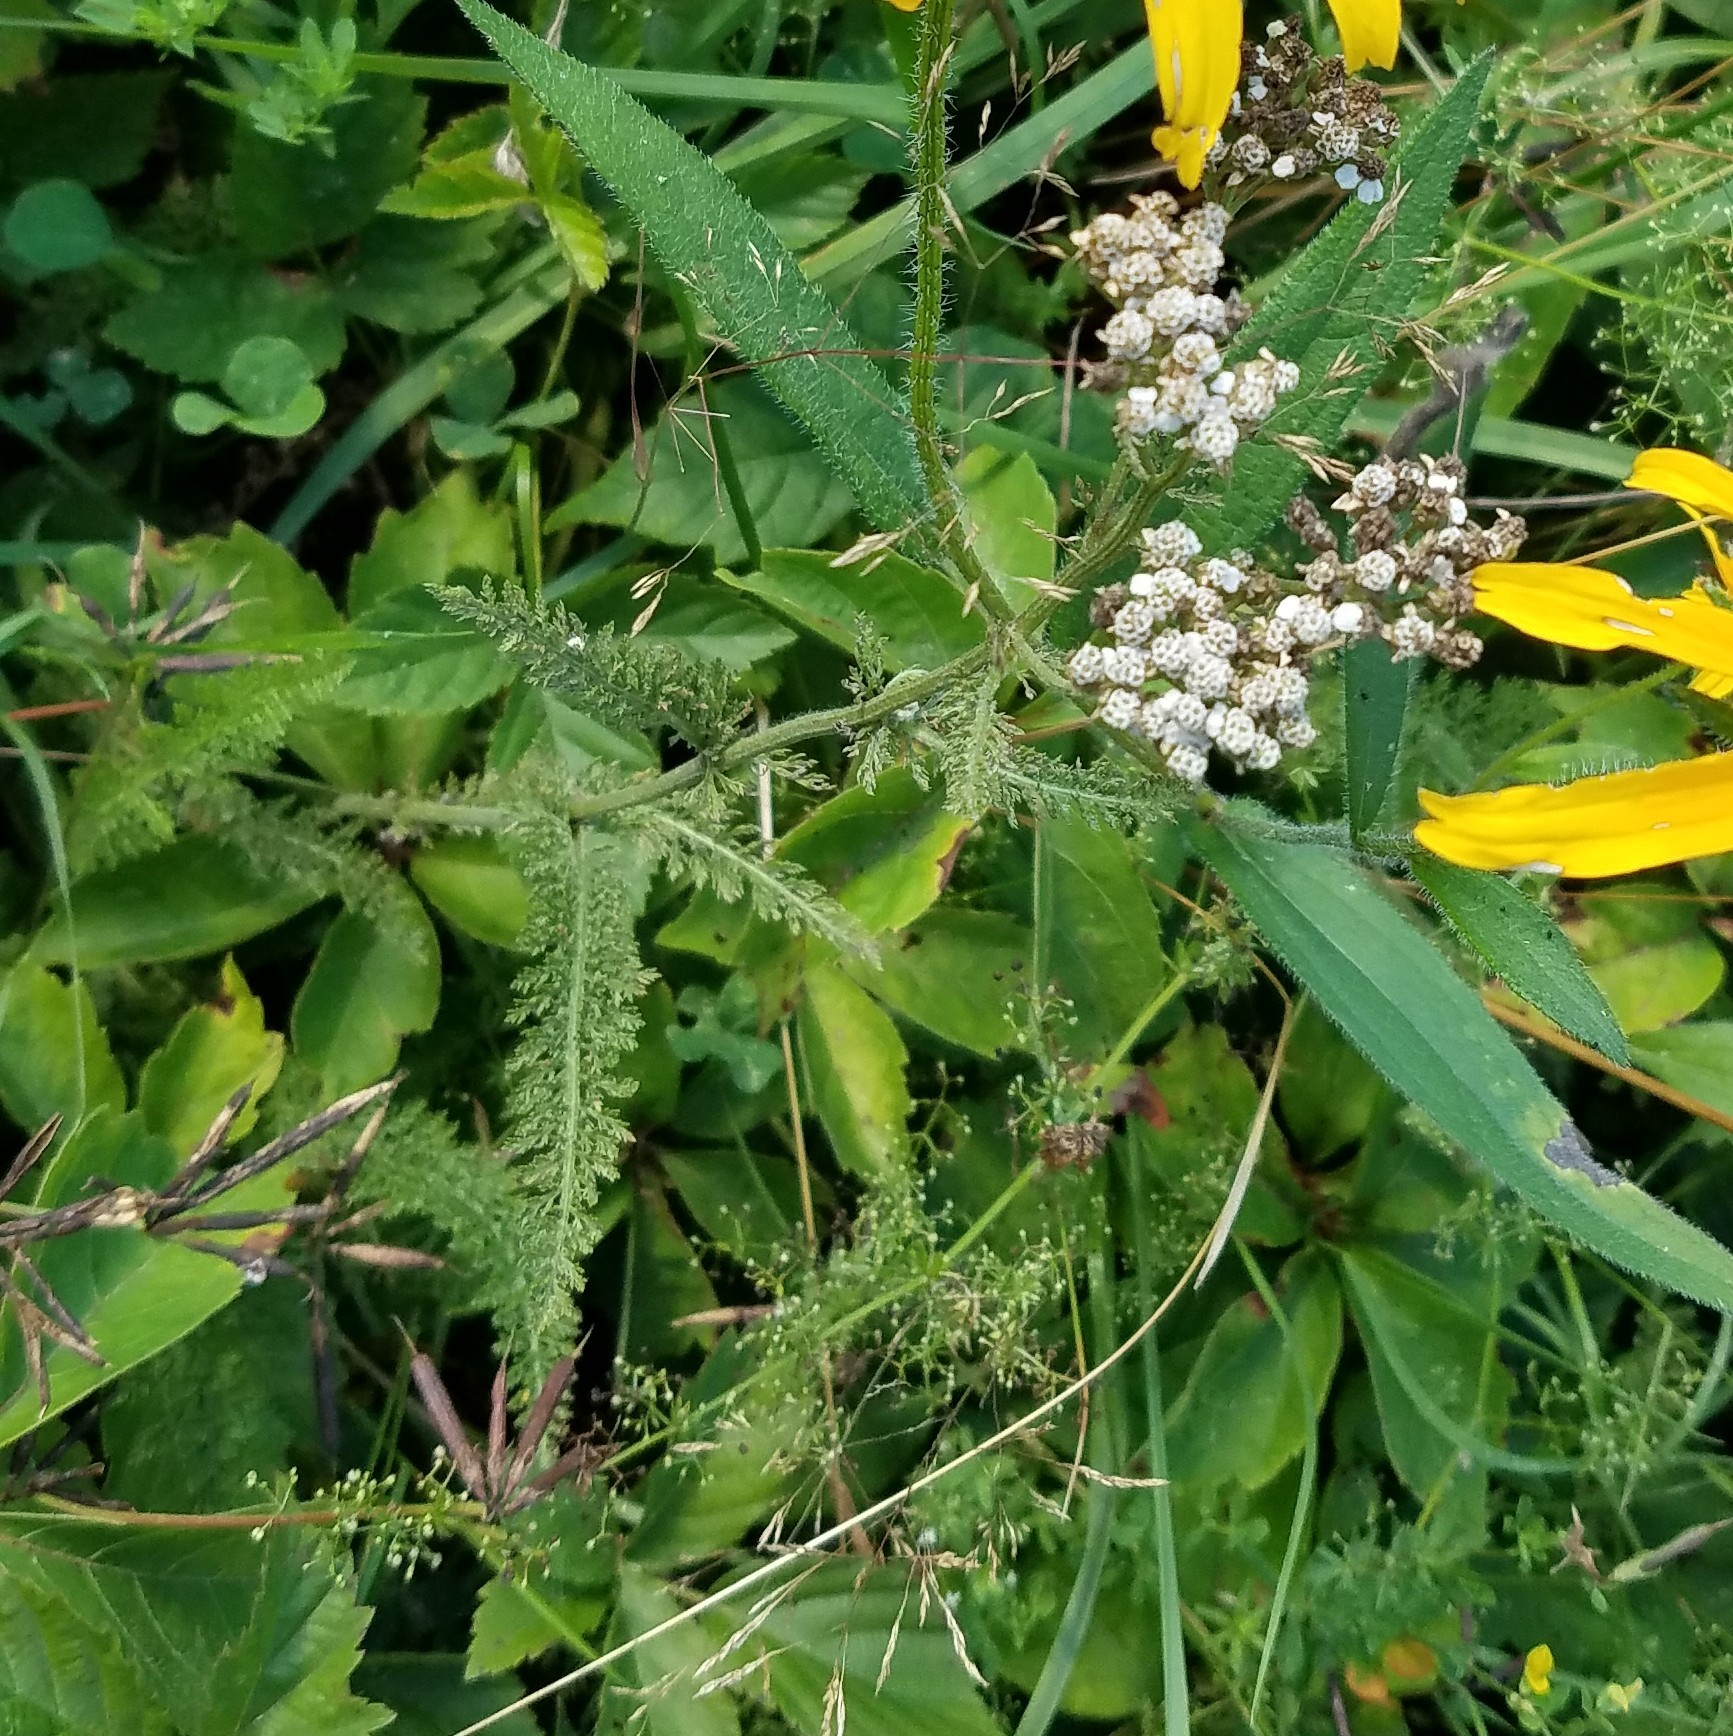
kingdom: Plantae
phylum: Tracheophyta
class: Magnoliopsida
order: Asterales
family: Asteraceae
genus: Achillea
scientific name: Achillea millefolium
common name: Yarrow
